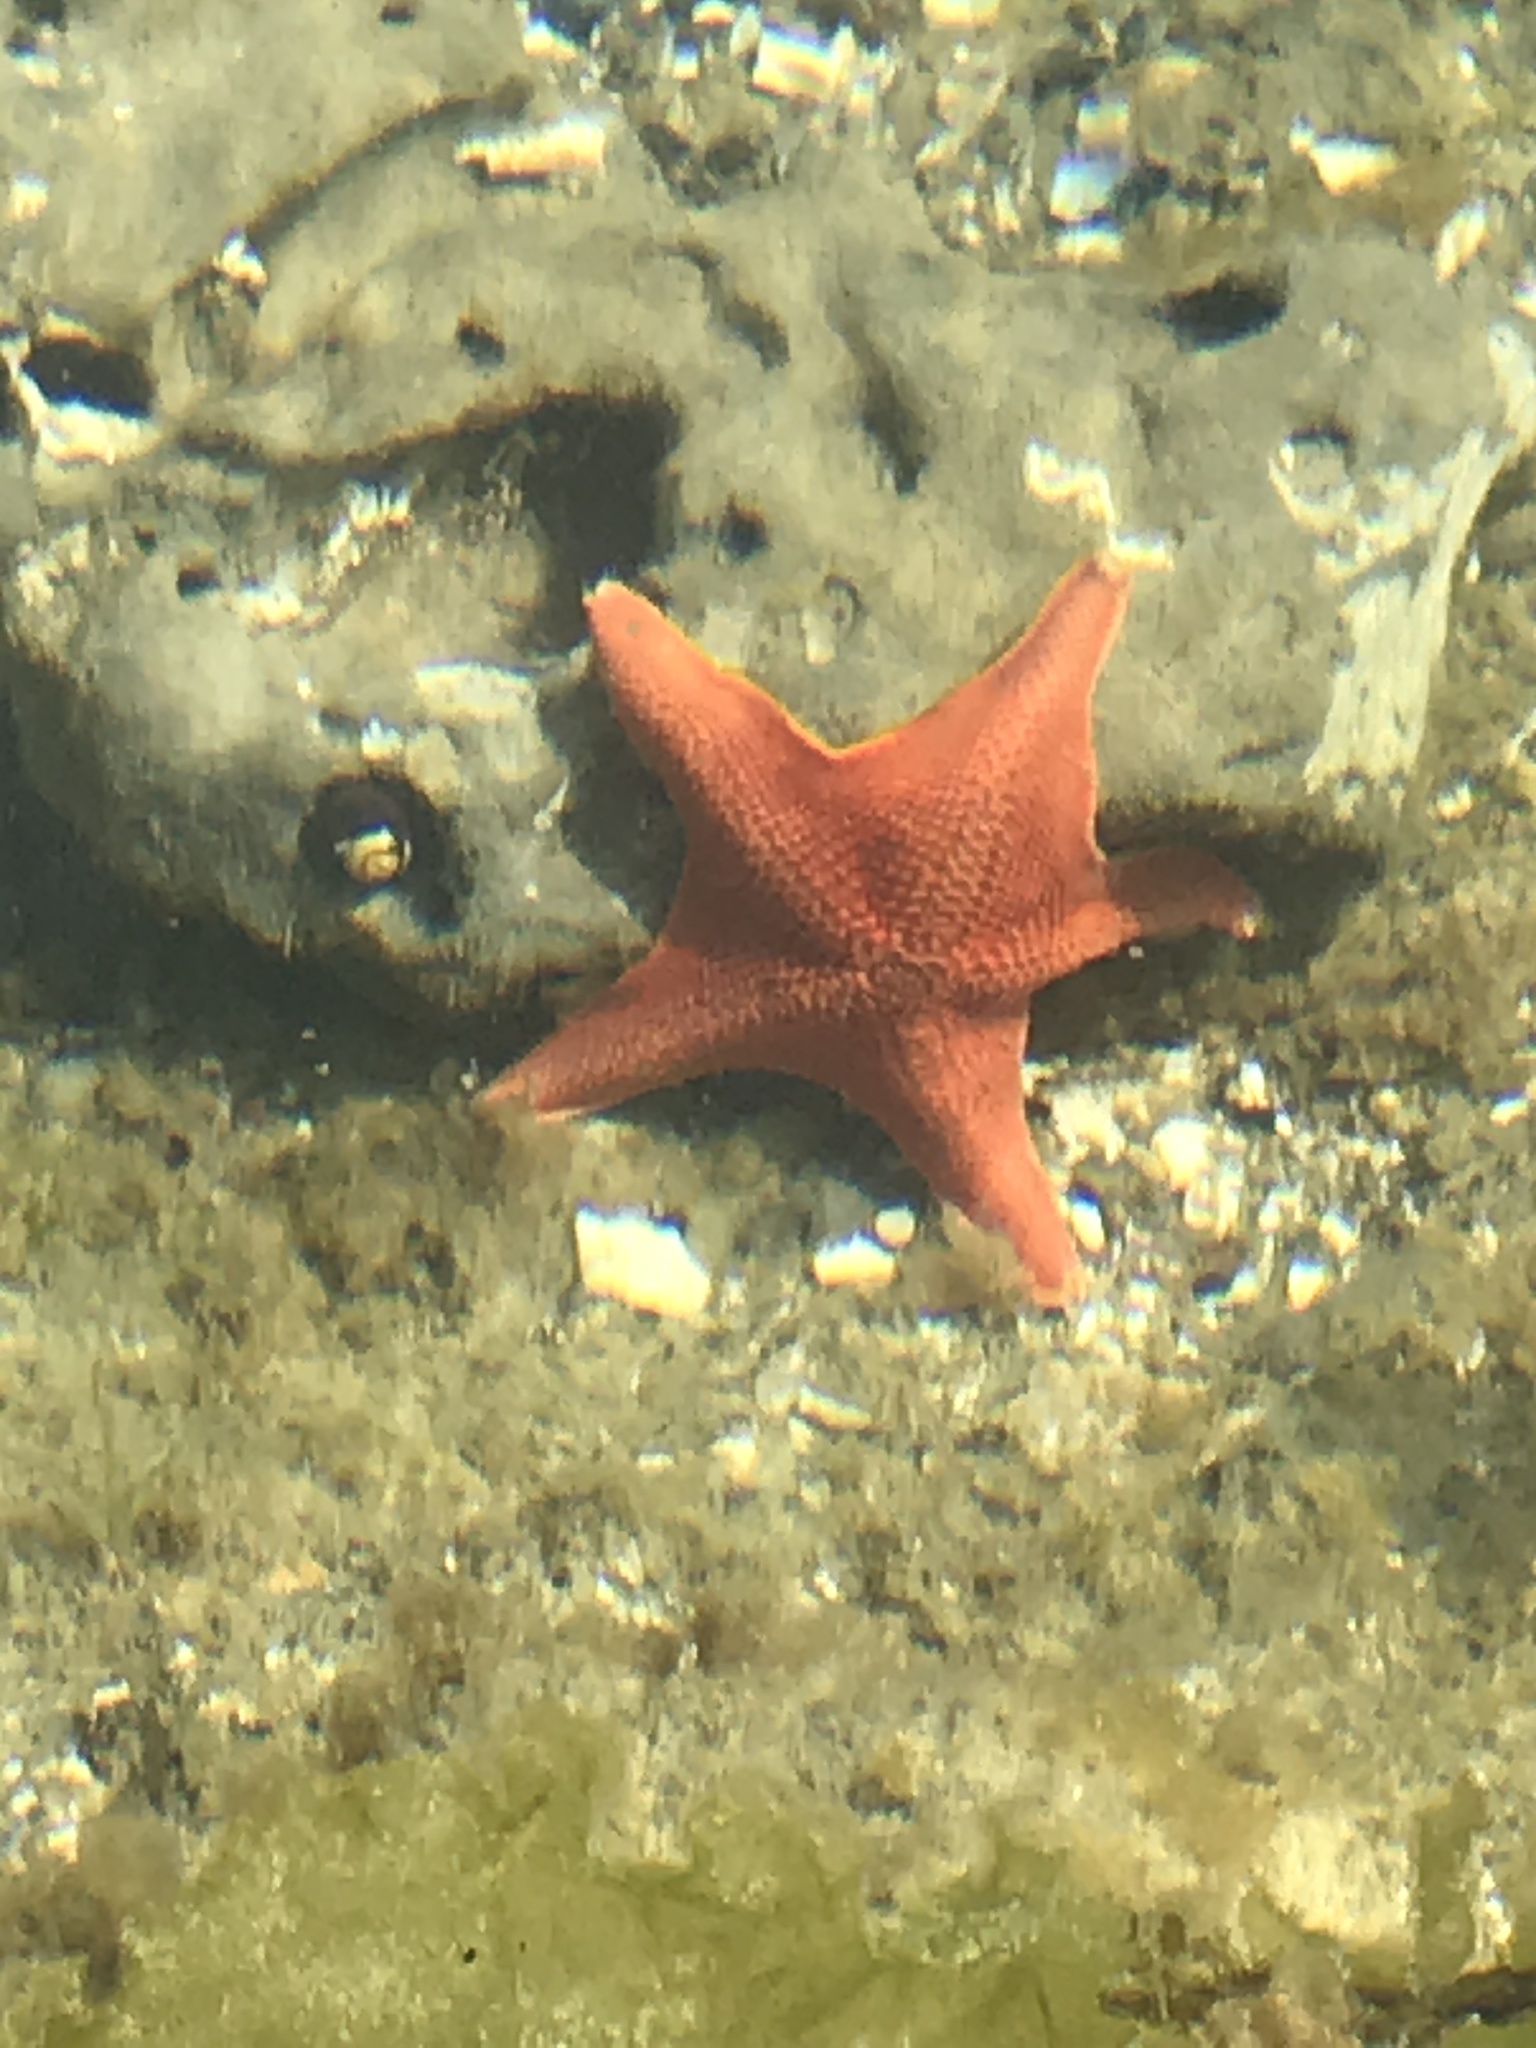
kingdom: Animalia
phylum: Echinodermata
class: Asteroidea
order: Valvatida
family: Asterinidae
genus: Patiria
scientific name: Patiria miniata
